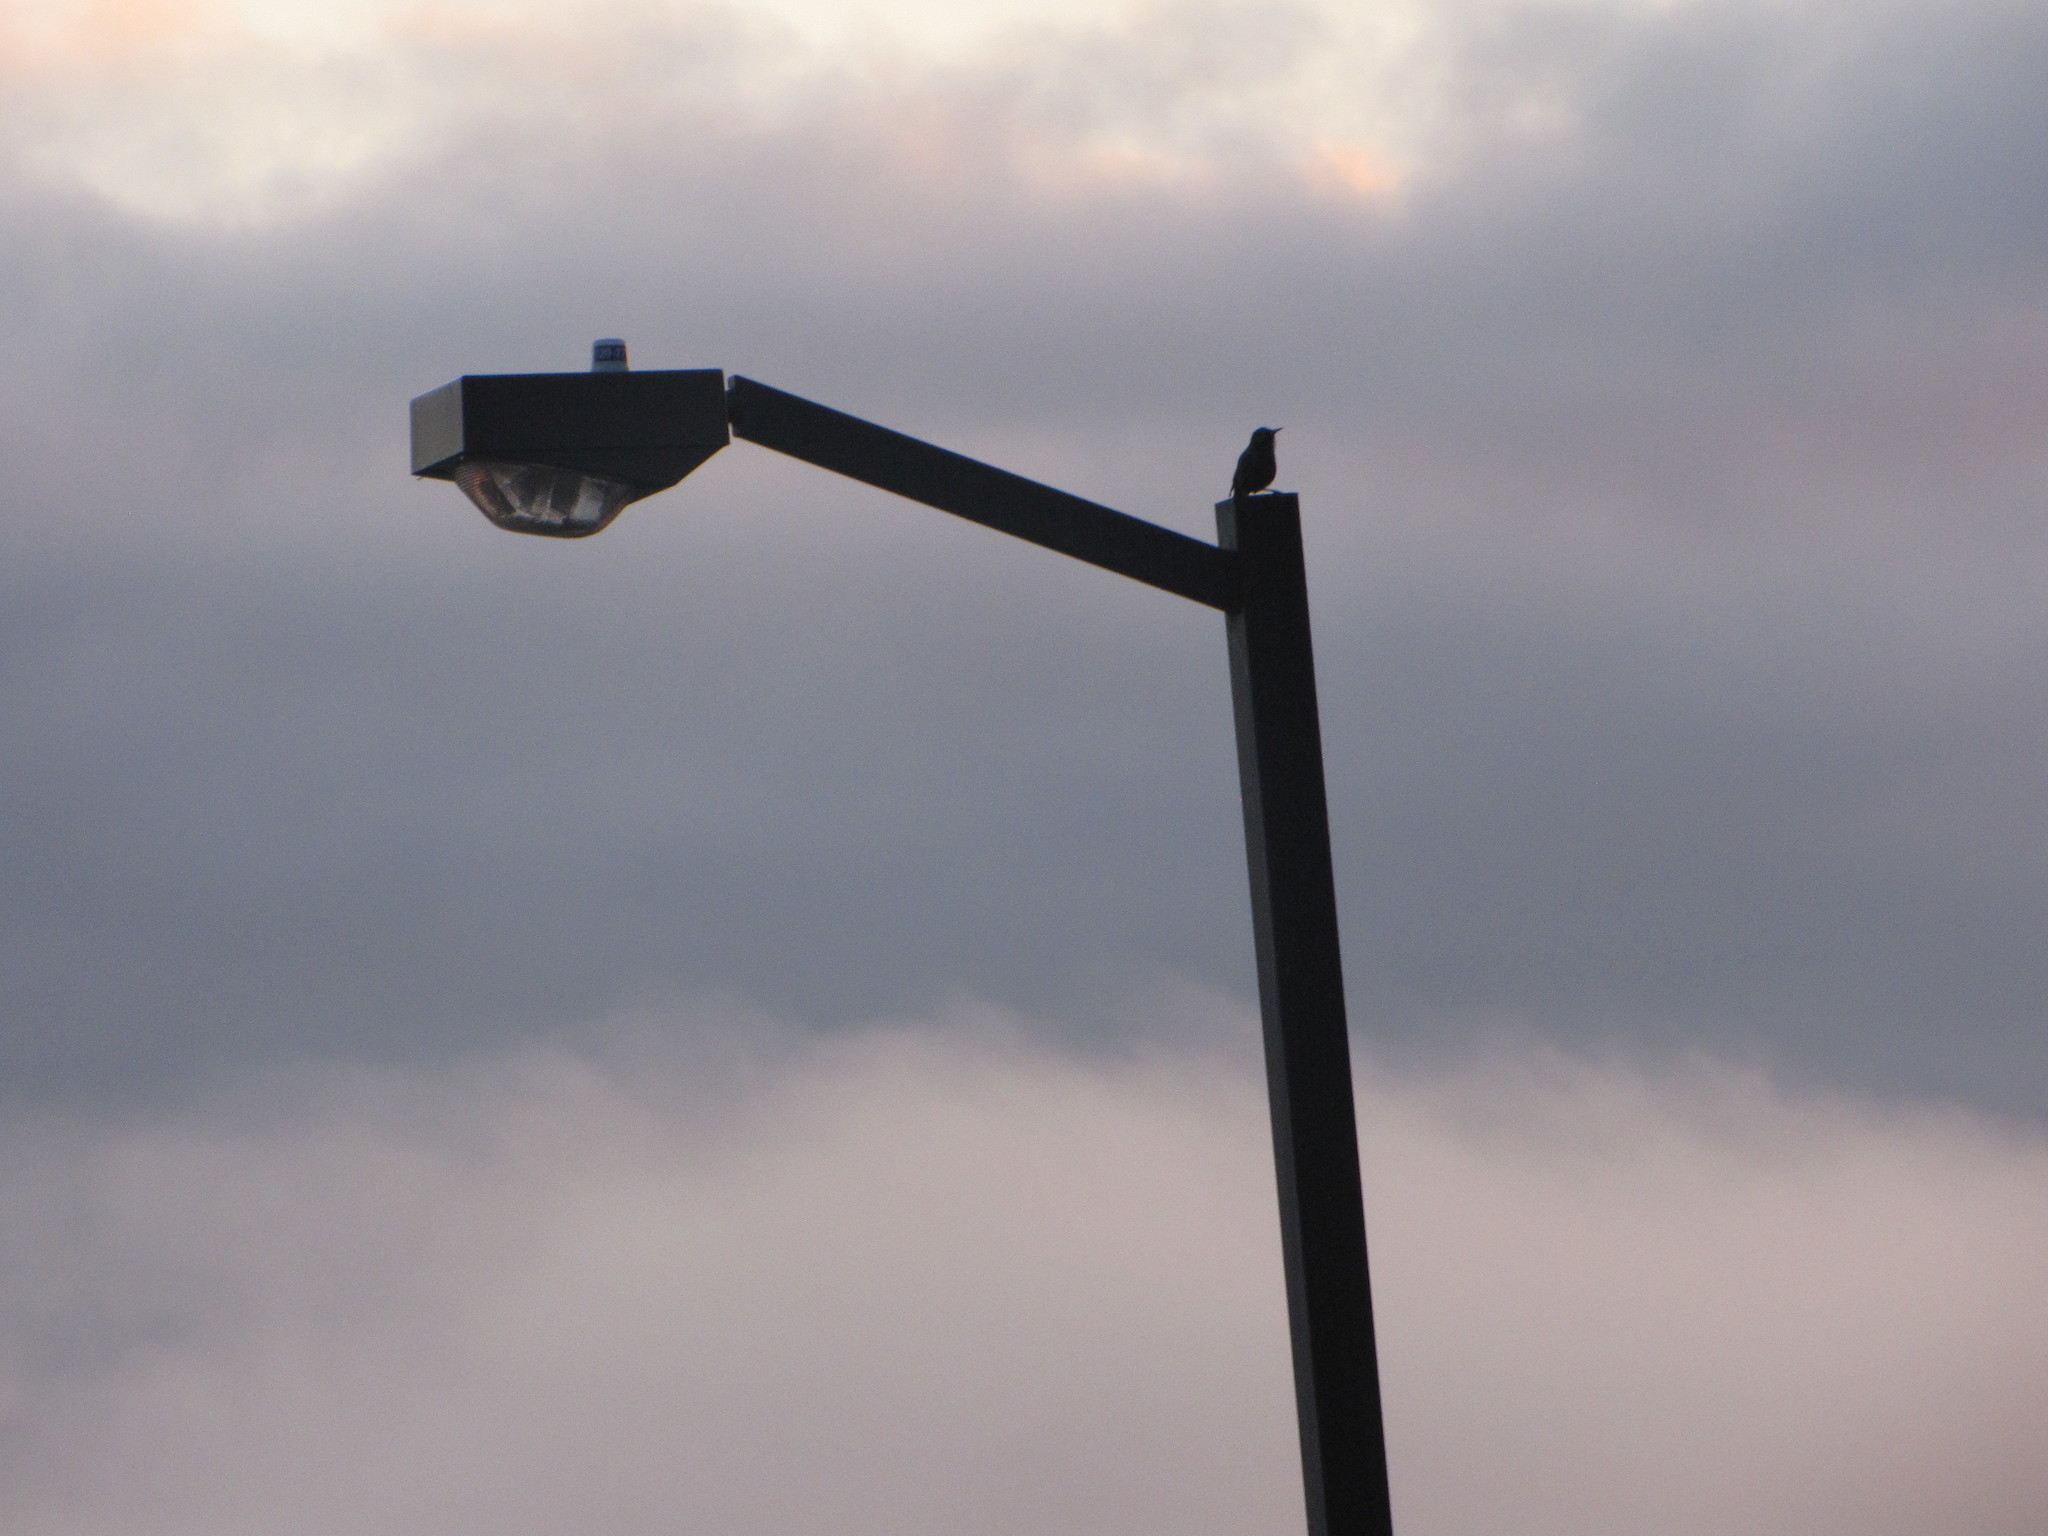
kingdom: Animalia
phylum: Chordata
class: Aves
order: Passeriformes
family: Sturnidae
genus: Sturnus
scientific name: Sturnus vulgaris
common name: Common starling
